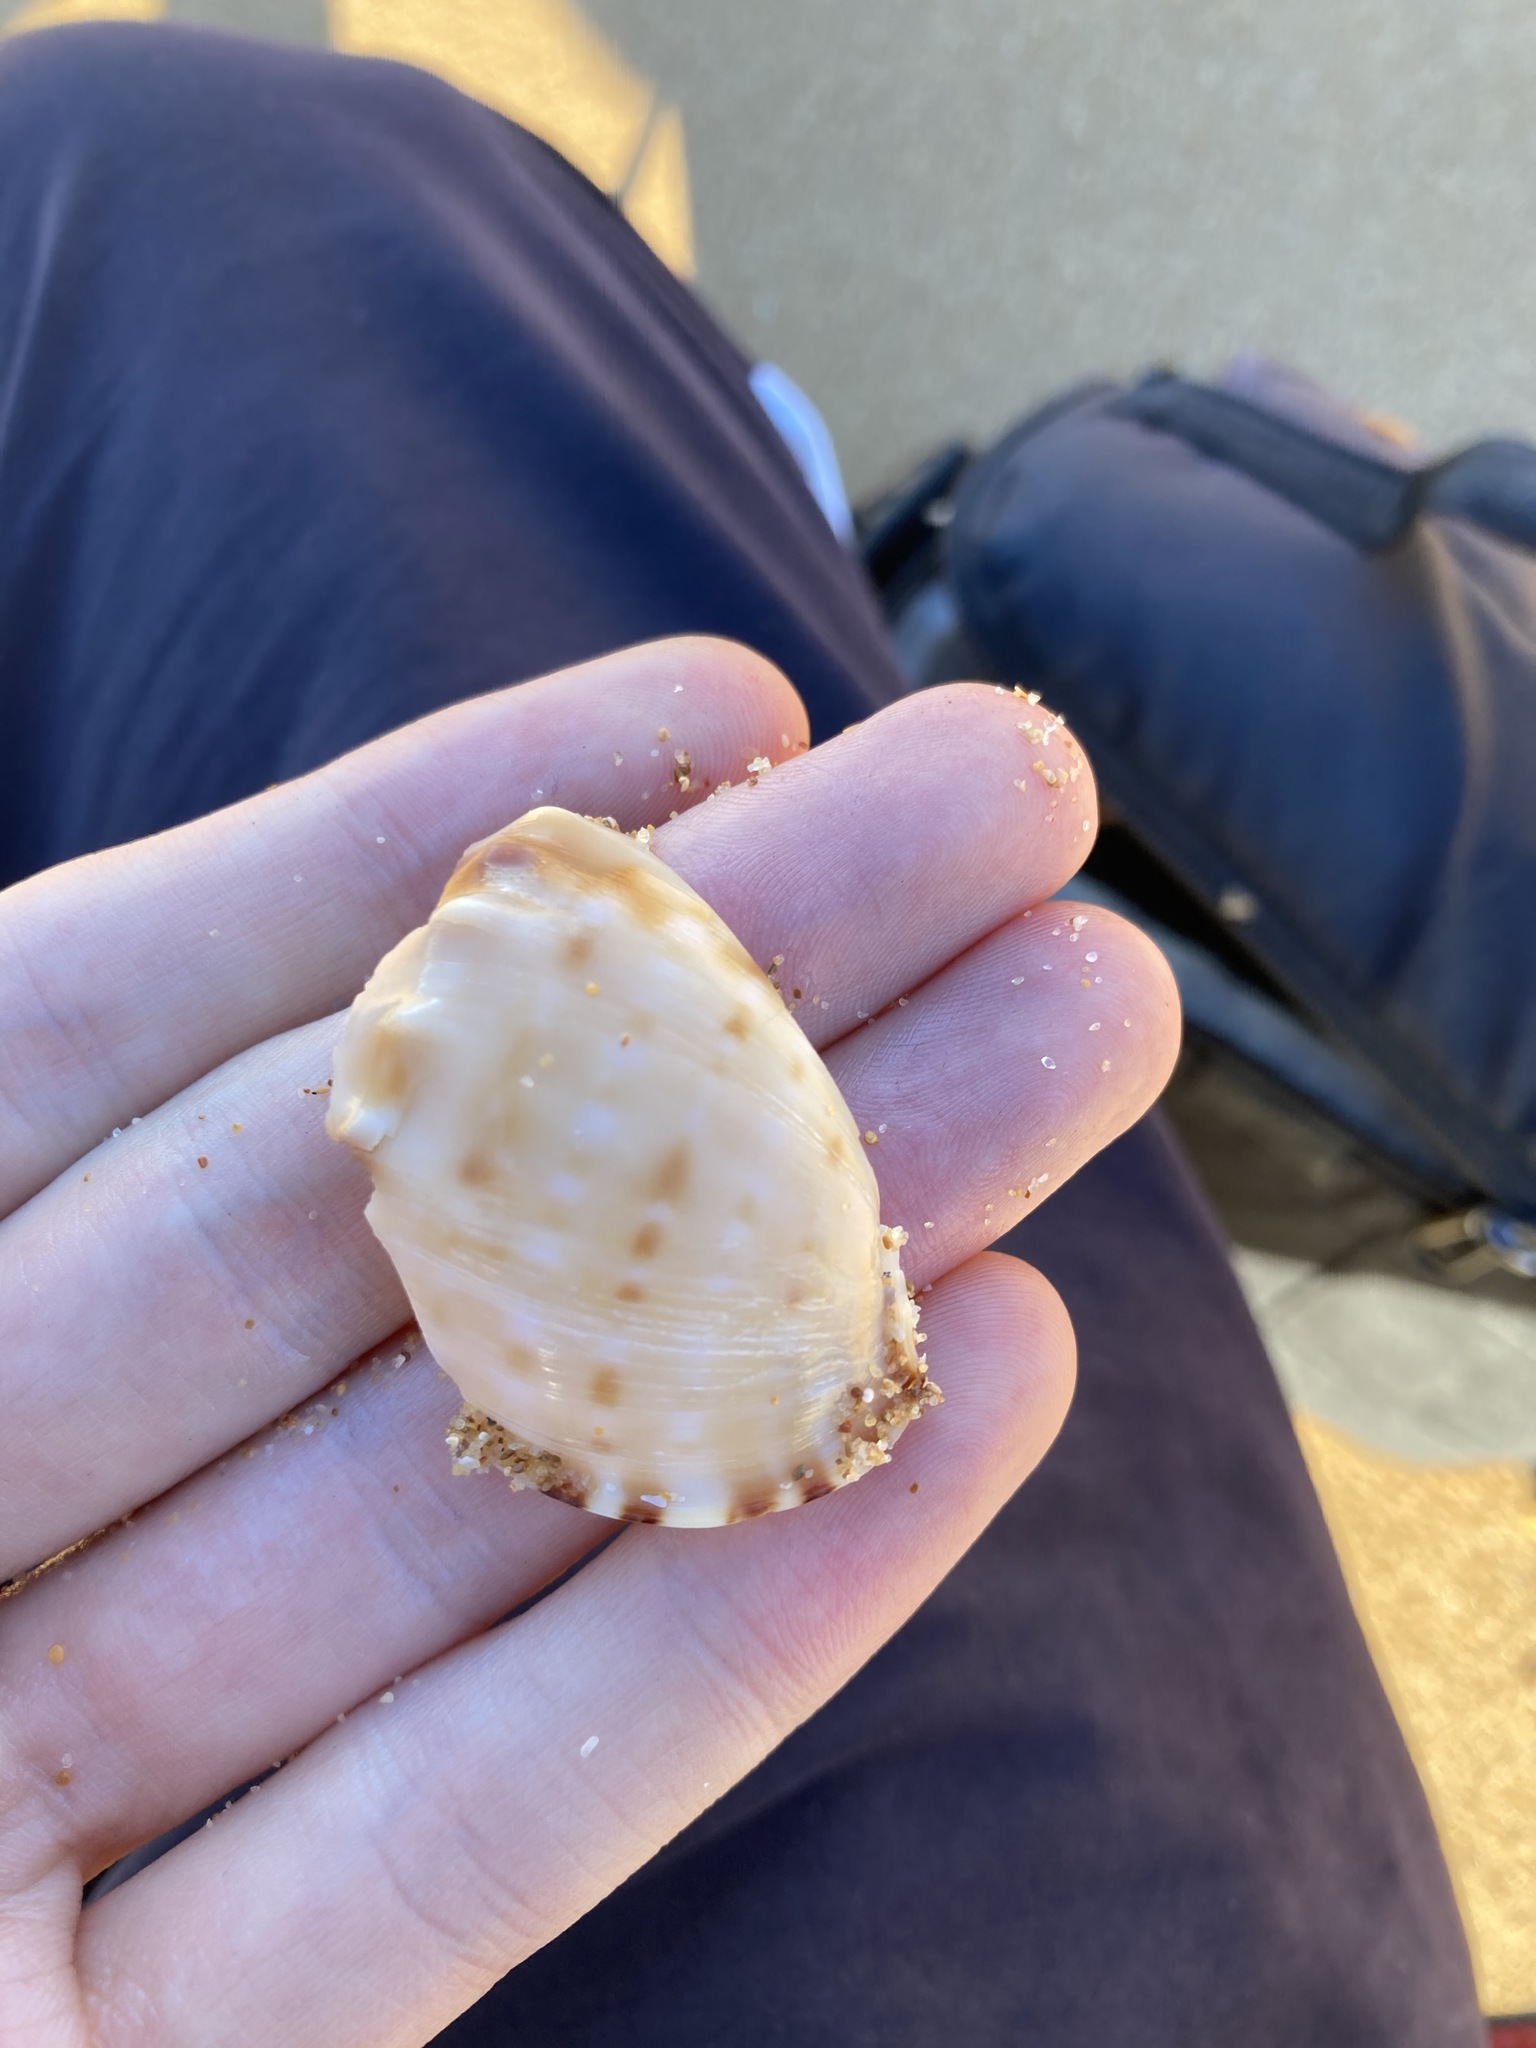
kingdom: Animalia
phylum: Mollusca
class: Gastropoda
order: Littorinimorpha
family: Cassidae
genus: Semicassis
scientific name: Semicassis labiata
